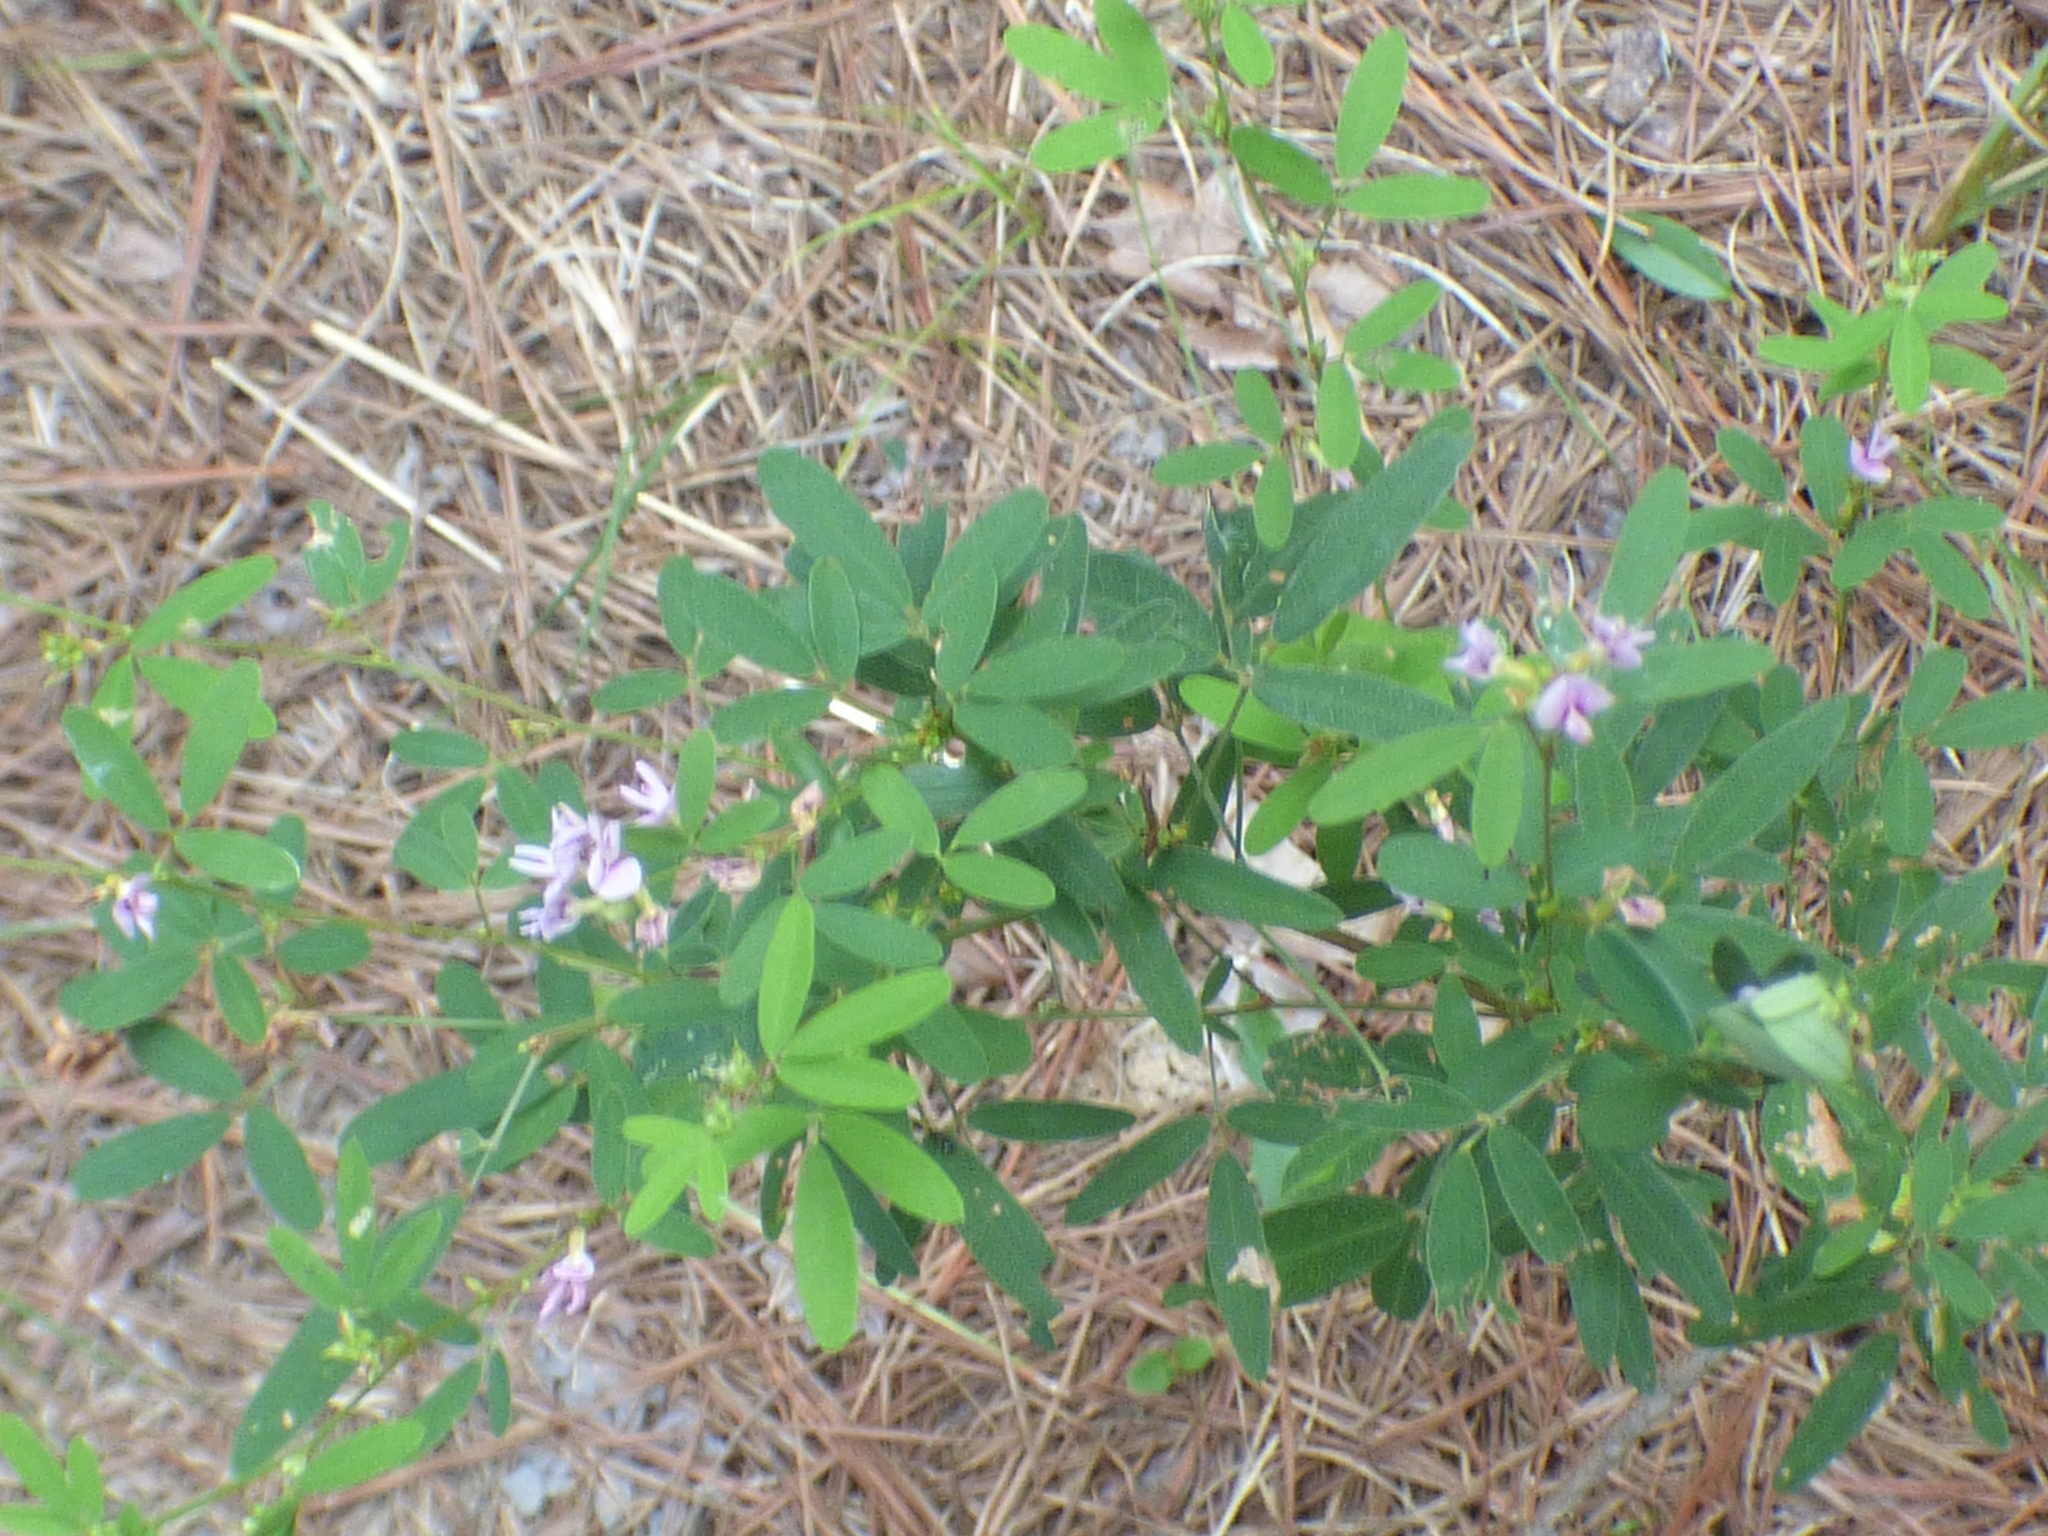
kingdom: Plantae
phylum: Tracheophyta
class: Magnoliopsida
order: Fabales
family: Fabaceae
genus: Lespedeza
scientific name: Lespedeza virginica
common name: Slender bush-clover
